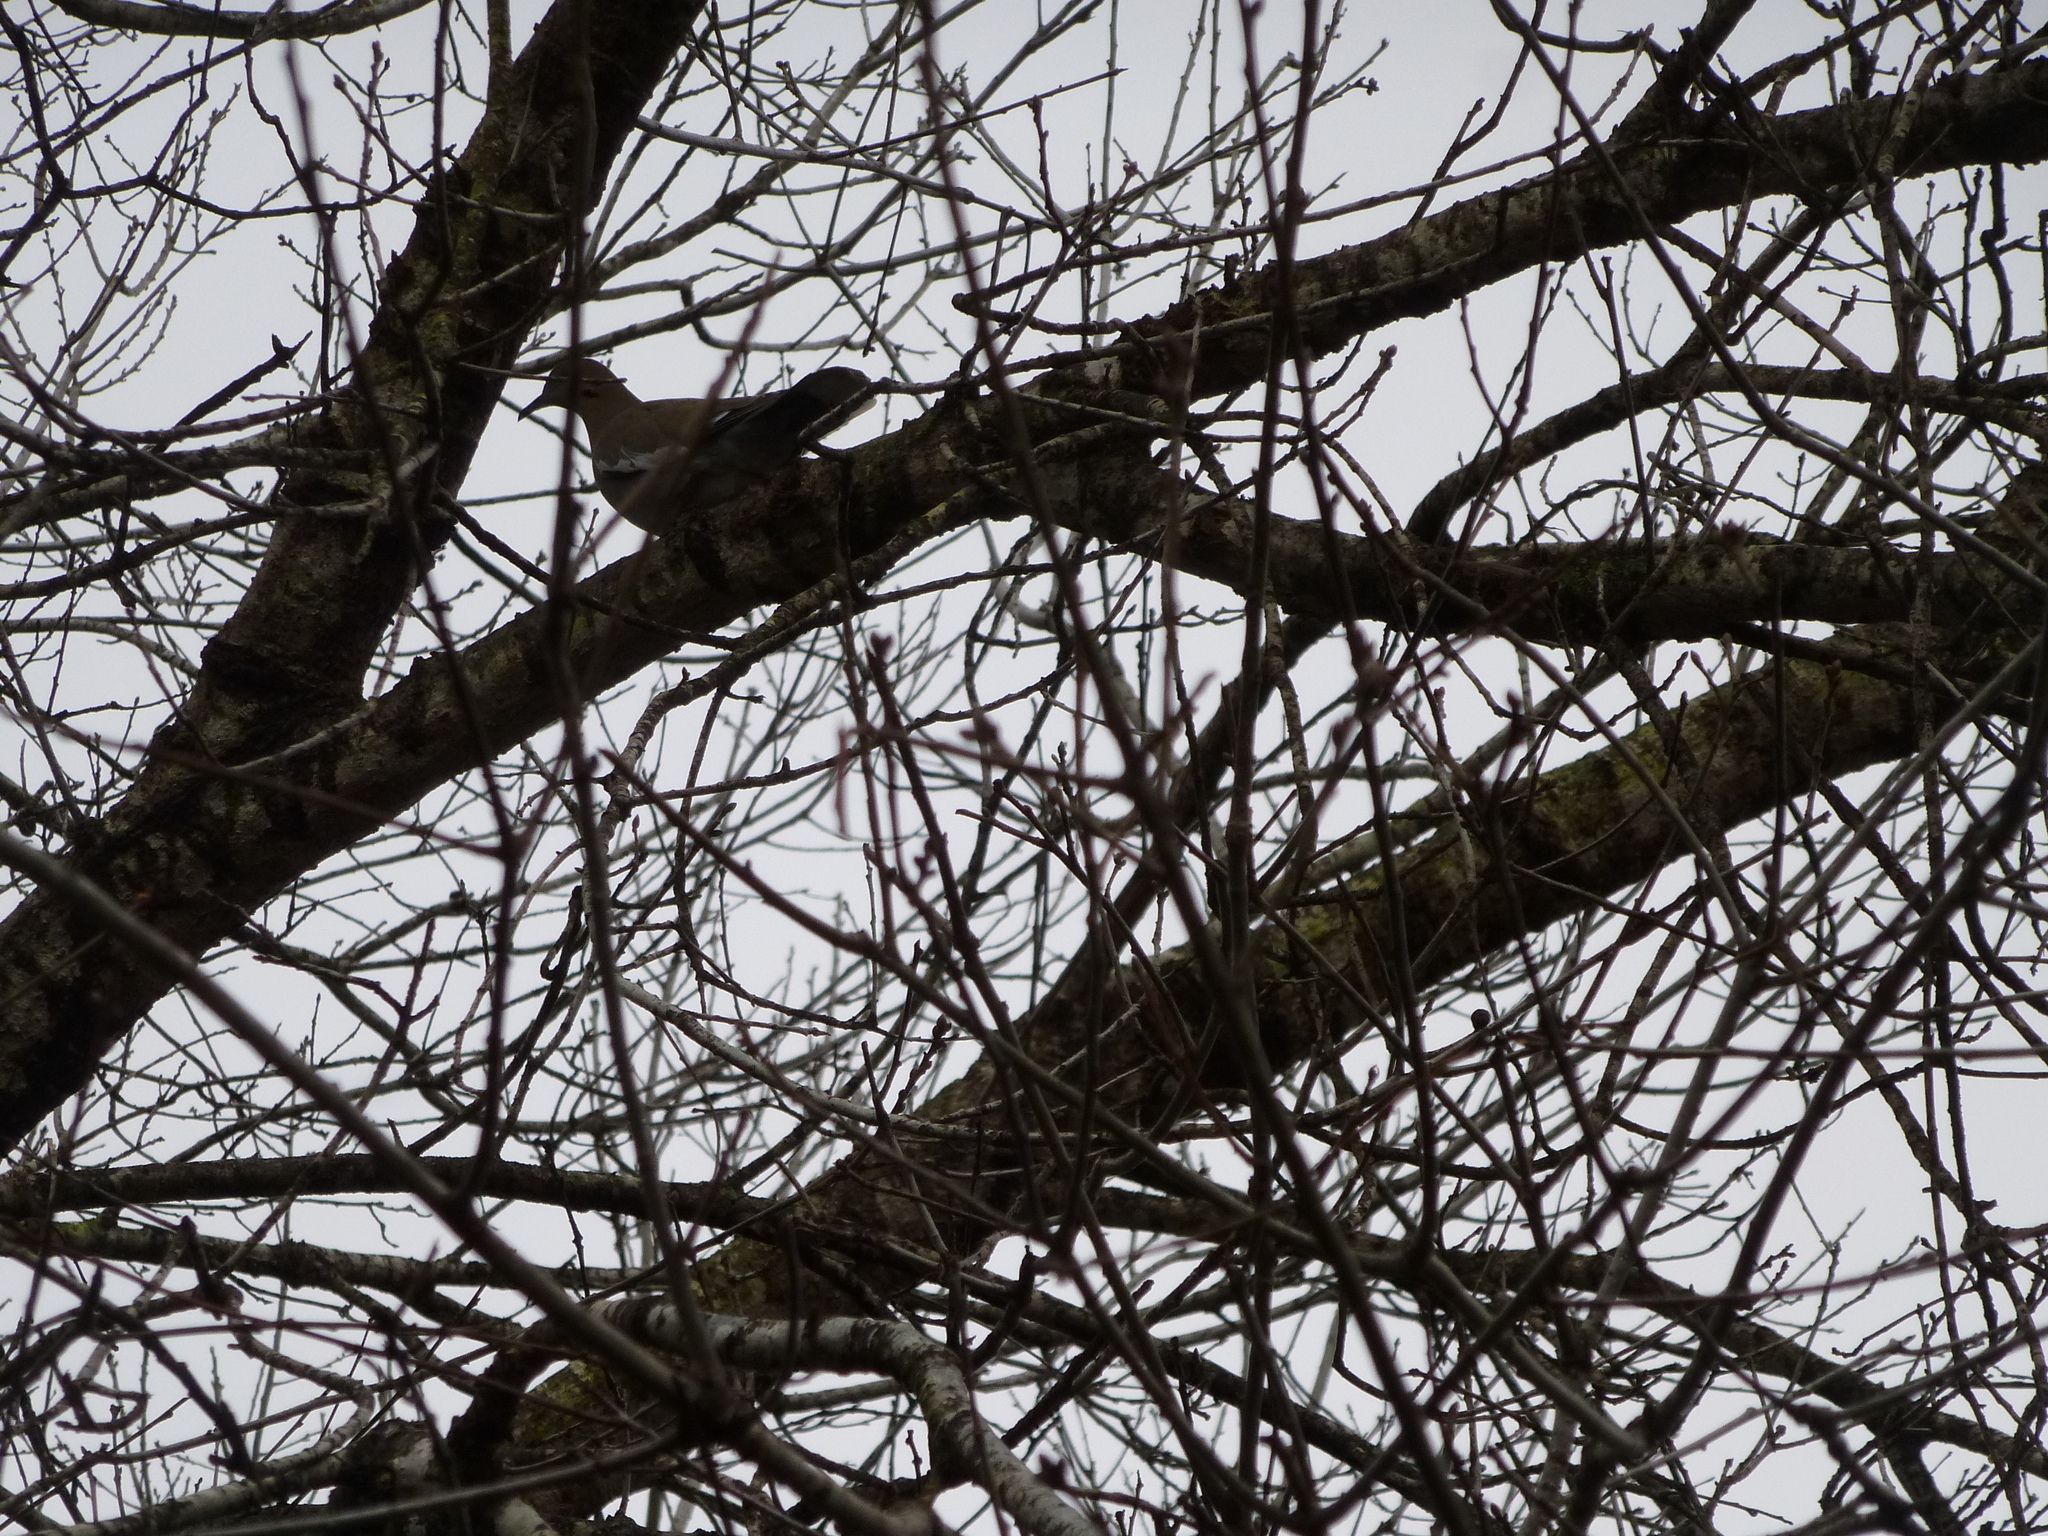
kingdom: Animalia
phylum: Chordata
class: Aves
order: Columbiformes
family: Columbidae
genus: Zenaida
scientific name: Zenaida asiatica
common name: White-winged dove
